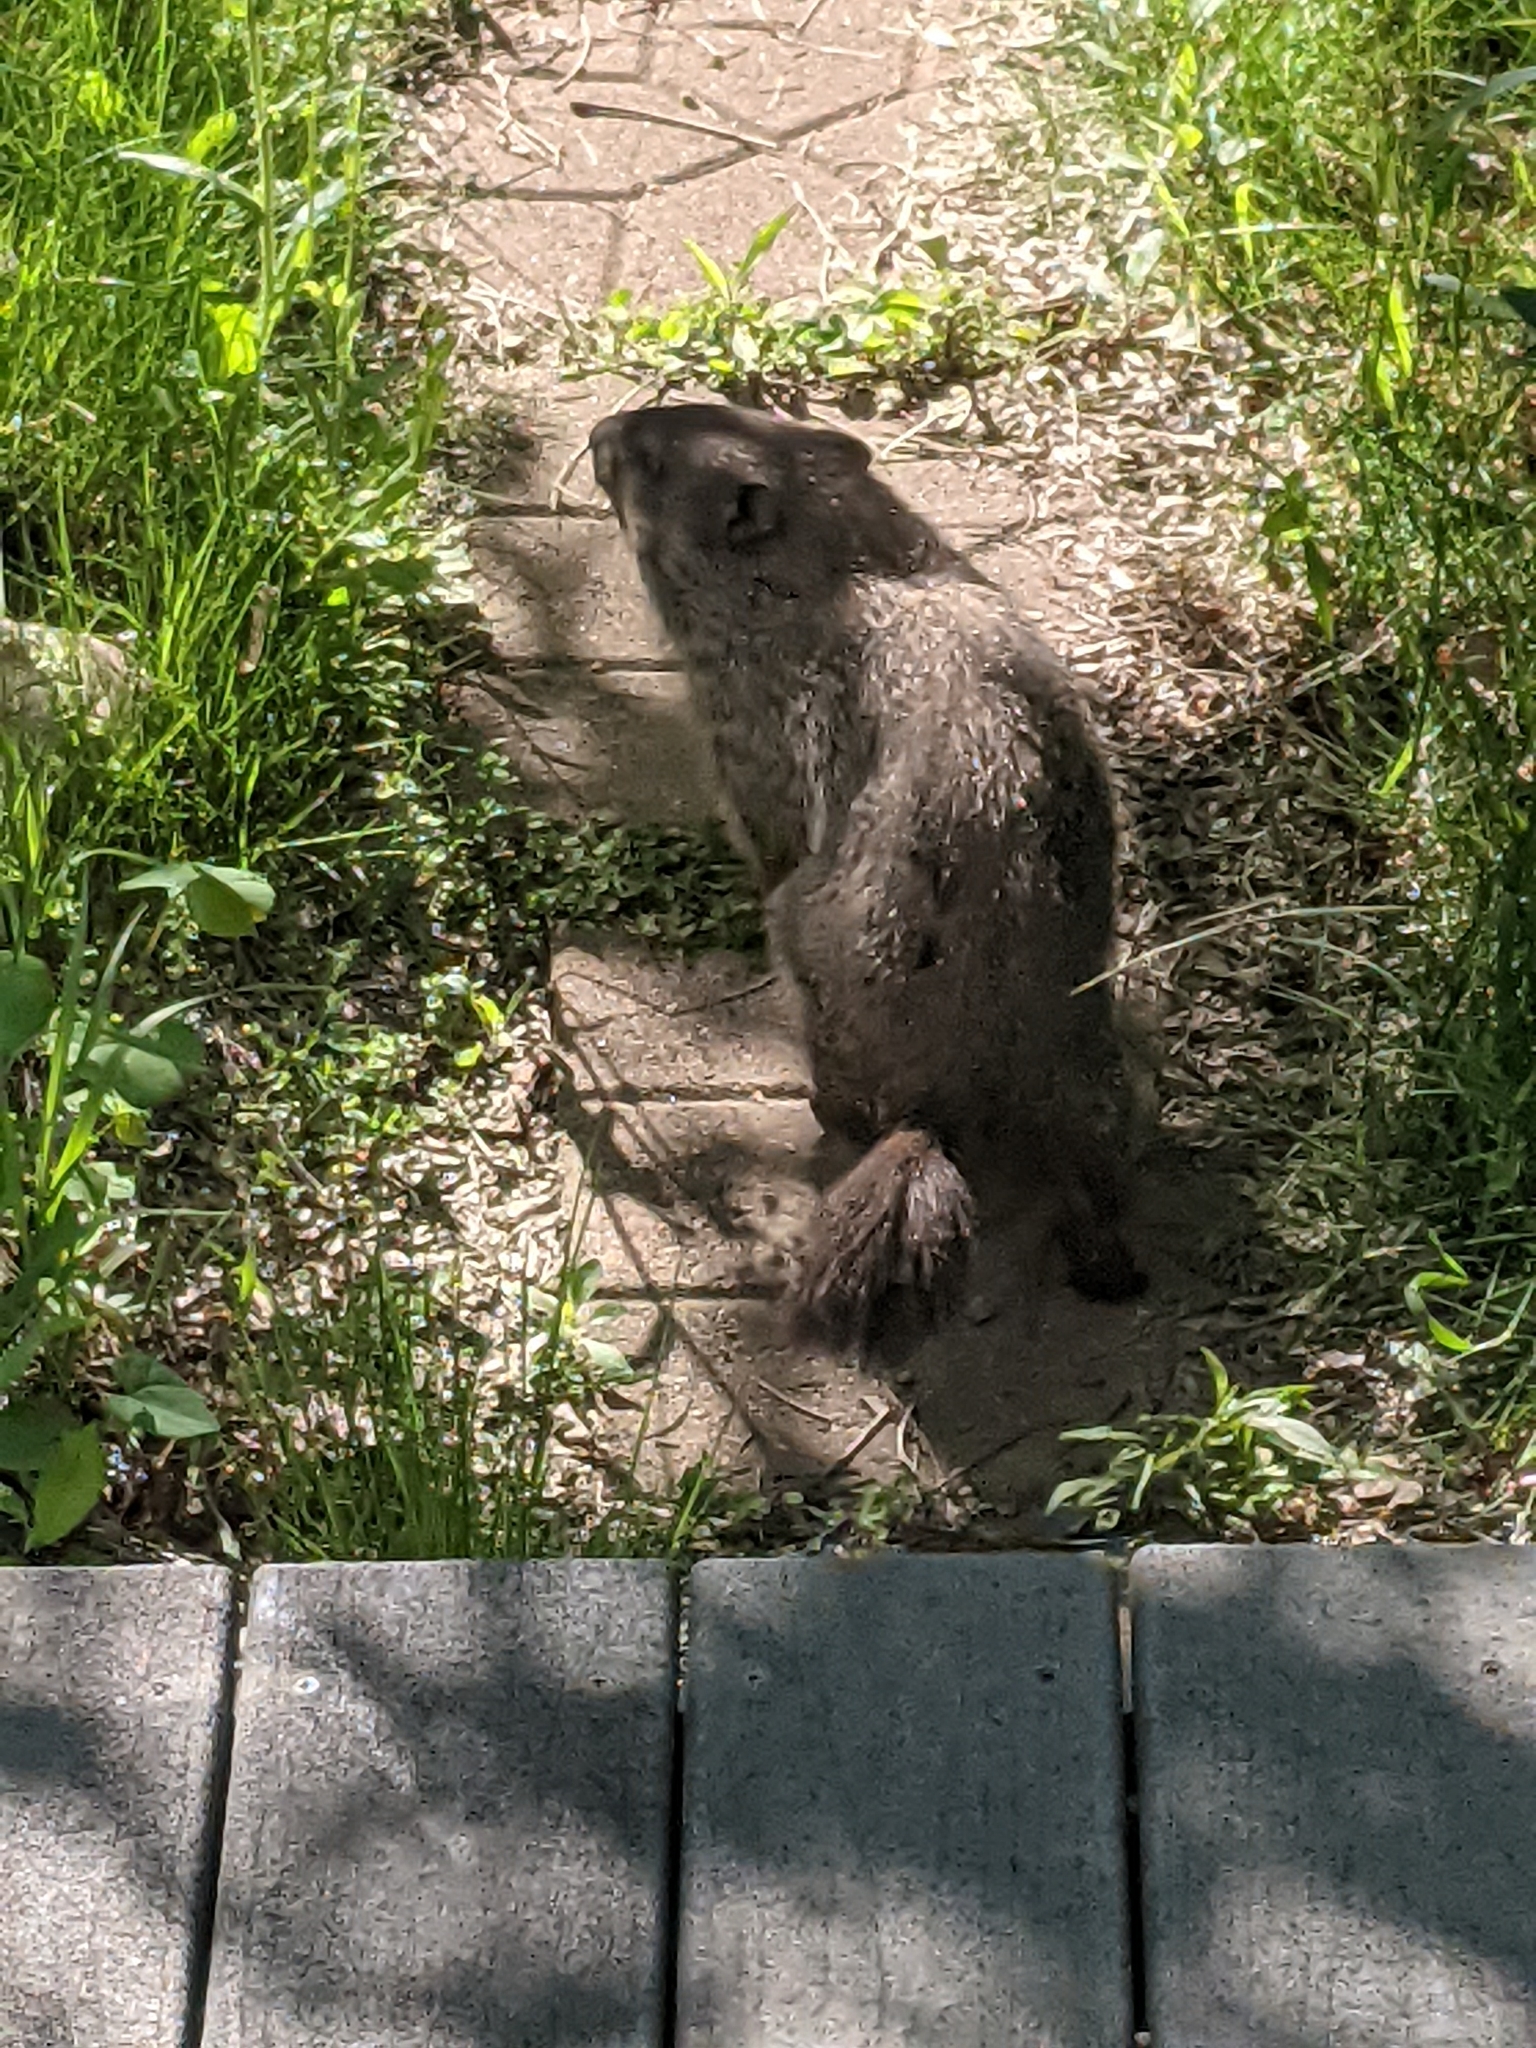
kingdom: Animalia
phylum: Chordata
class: Mammalia
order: Rodentia
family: Sciuridae
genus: Marmota
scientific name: Marmota monax
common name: Groundhog
